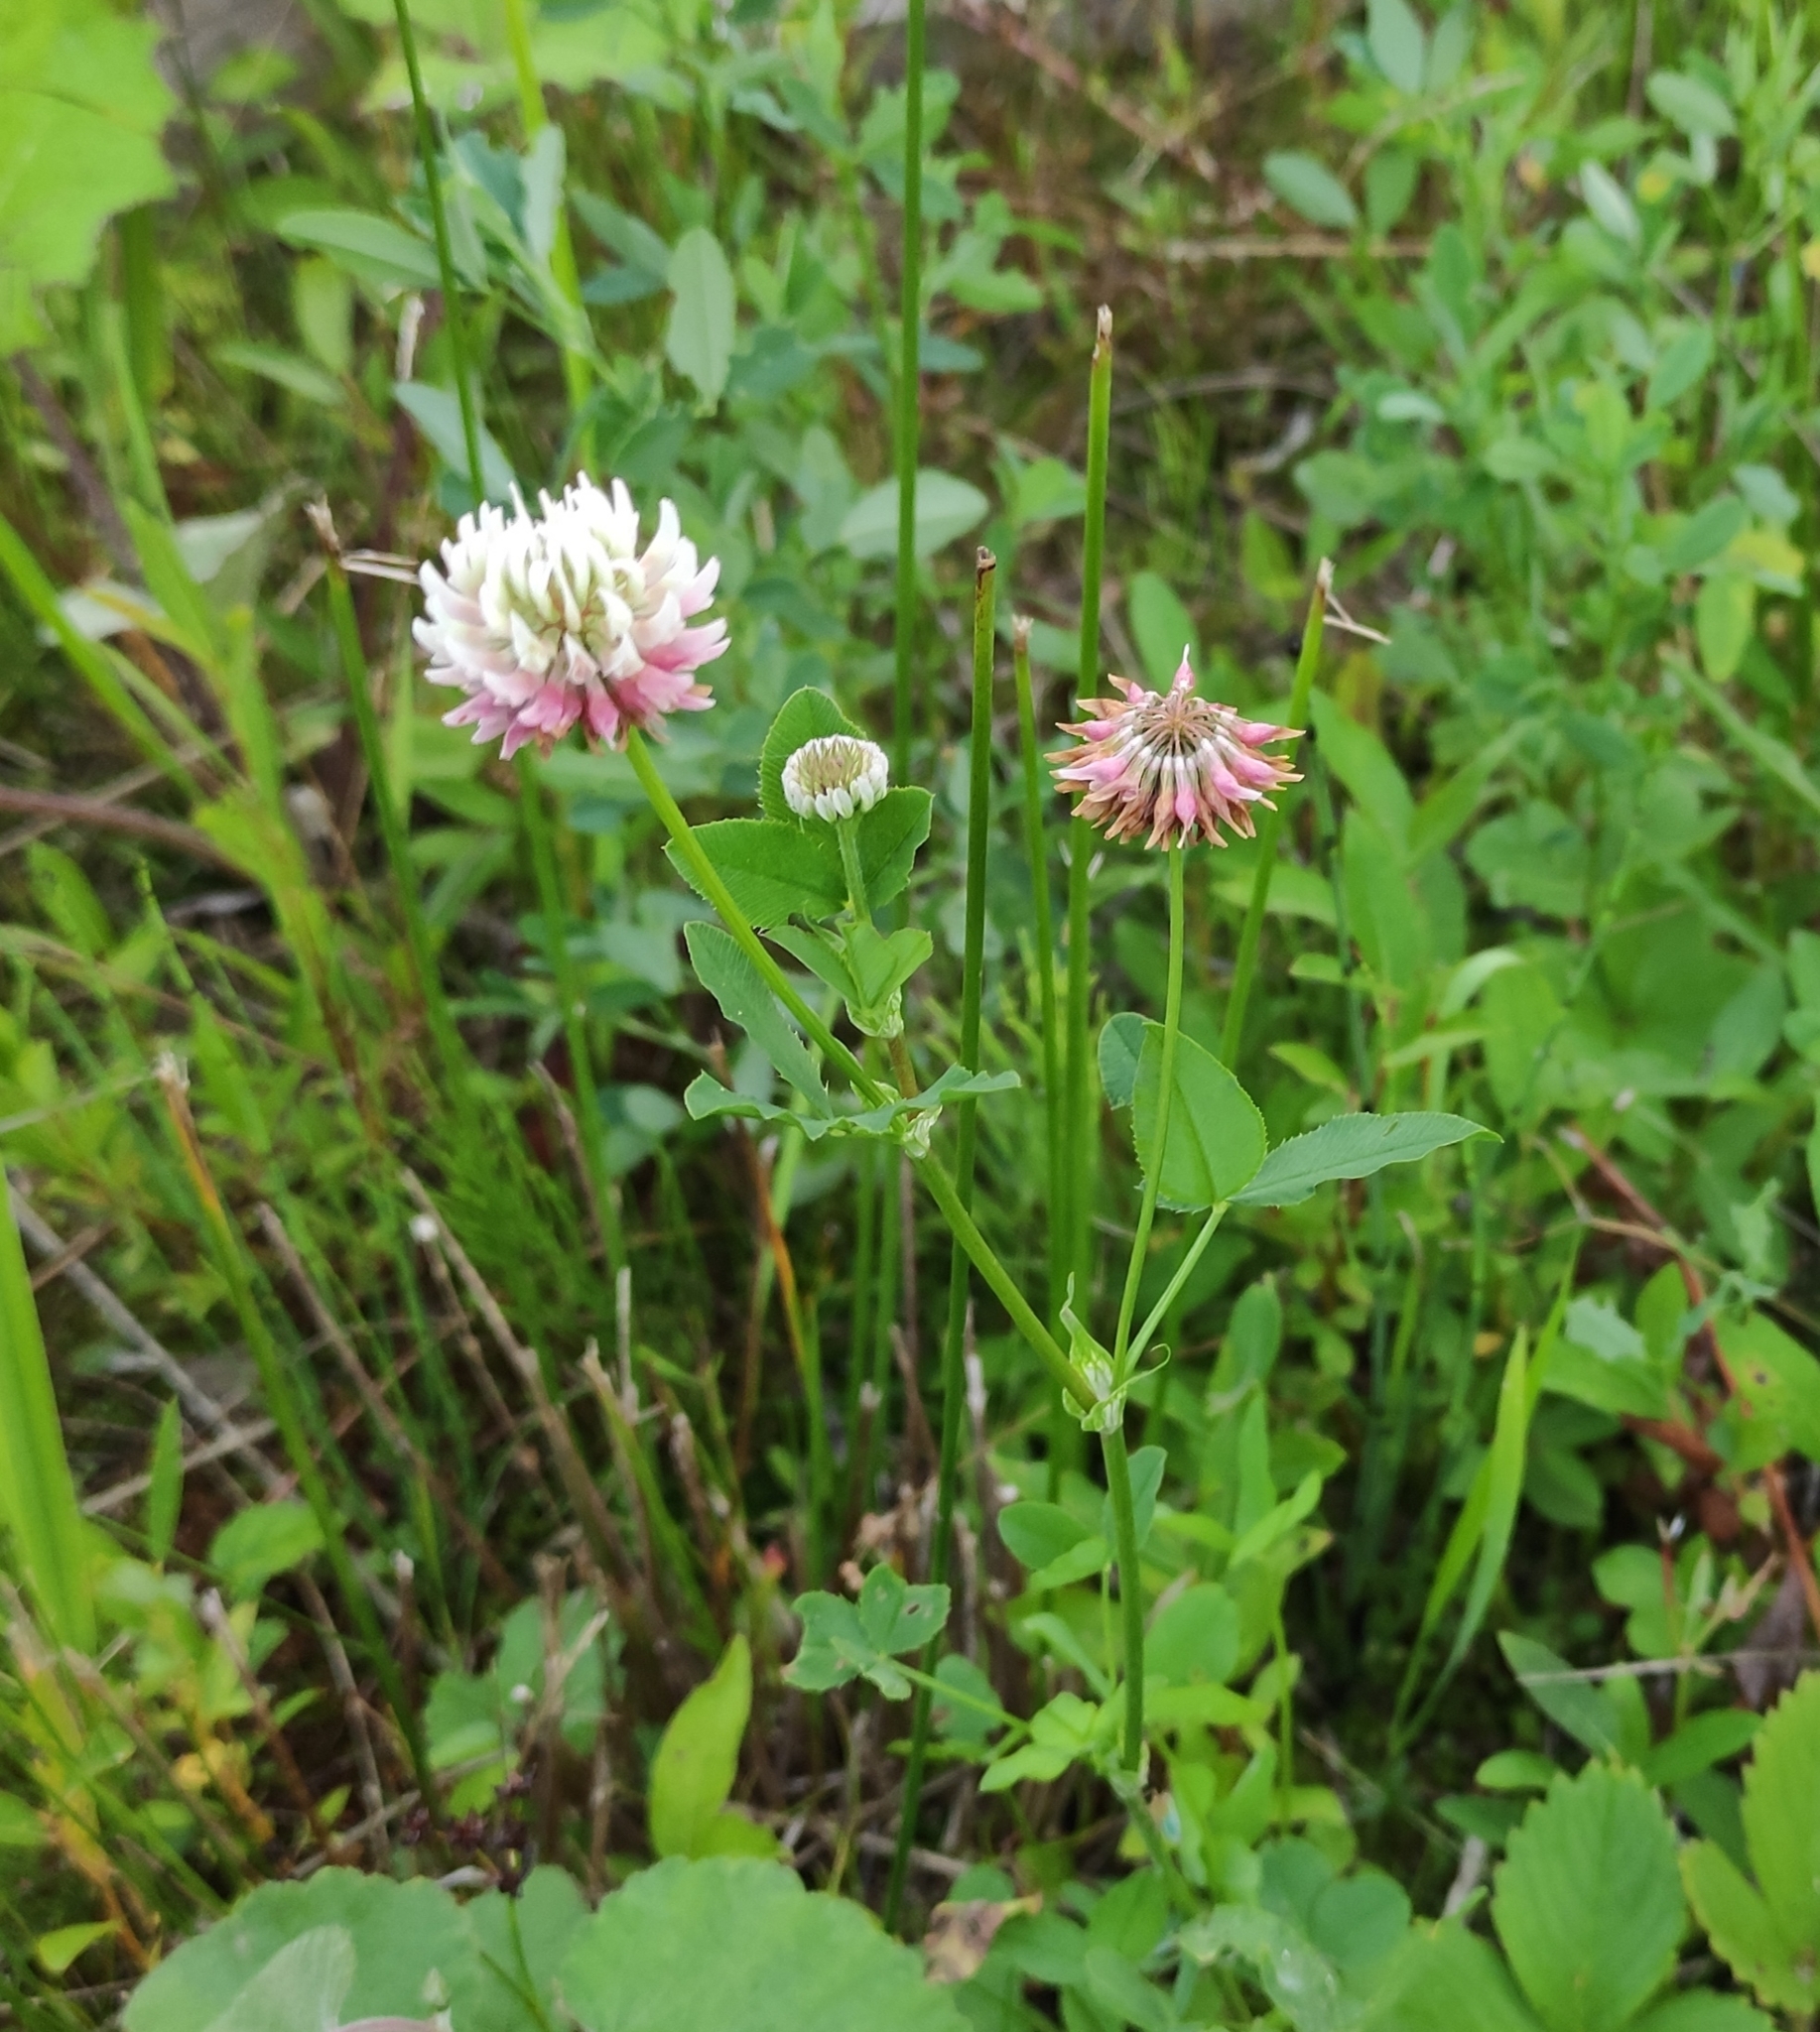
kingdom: Plantae
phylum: Tracheophyta
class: Magnoliopsida
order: Fabales
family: Fabaceae
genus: Trifolium
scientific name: Trifolium hybridum
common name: Alsike clover
